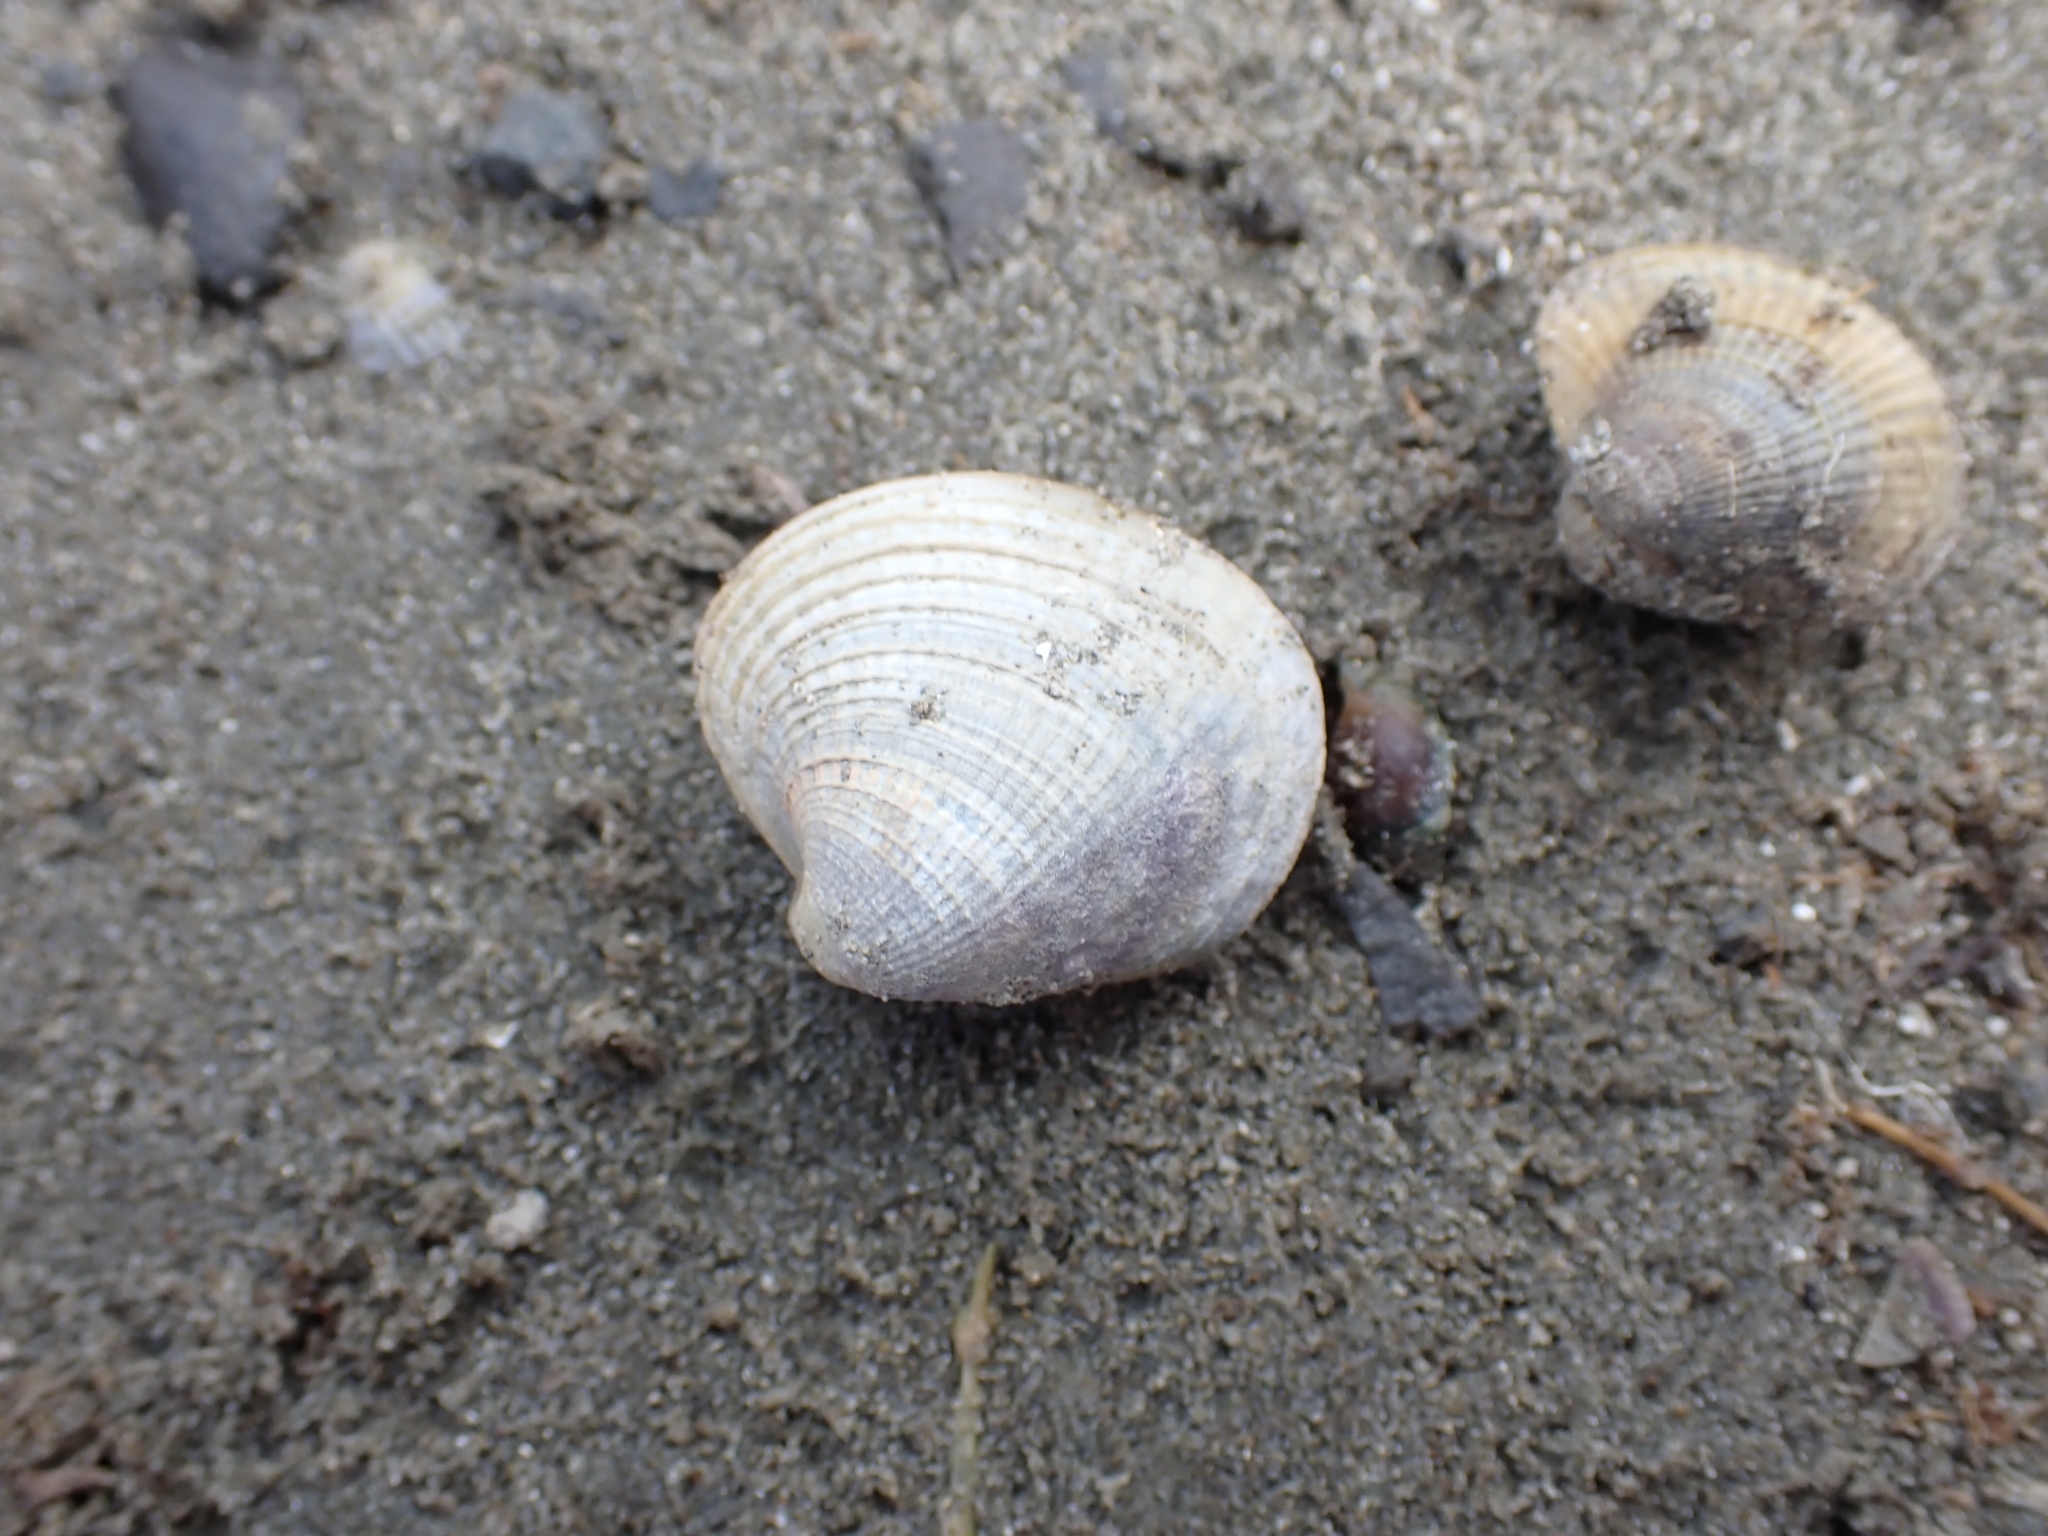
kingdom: Animalia
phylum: Mollusca
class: Bivalvia
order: Venerida
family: Veneridae
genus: Austrovenus
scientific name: Austrovenus stutchburyi
